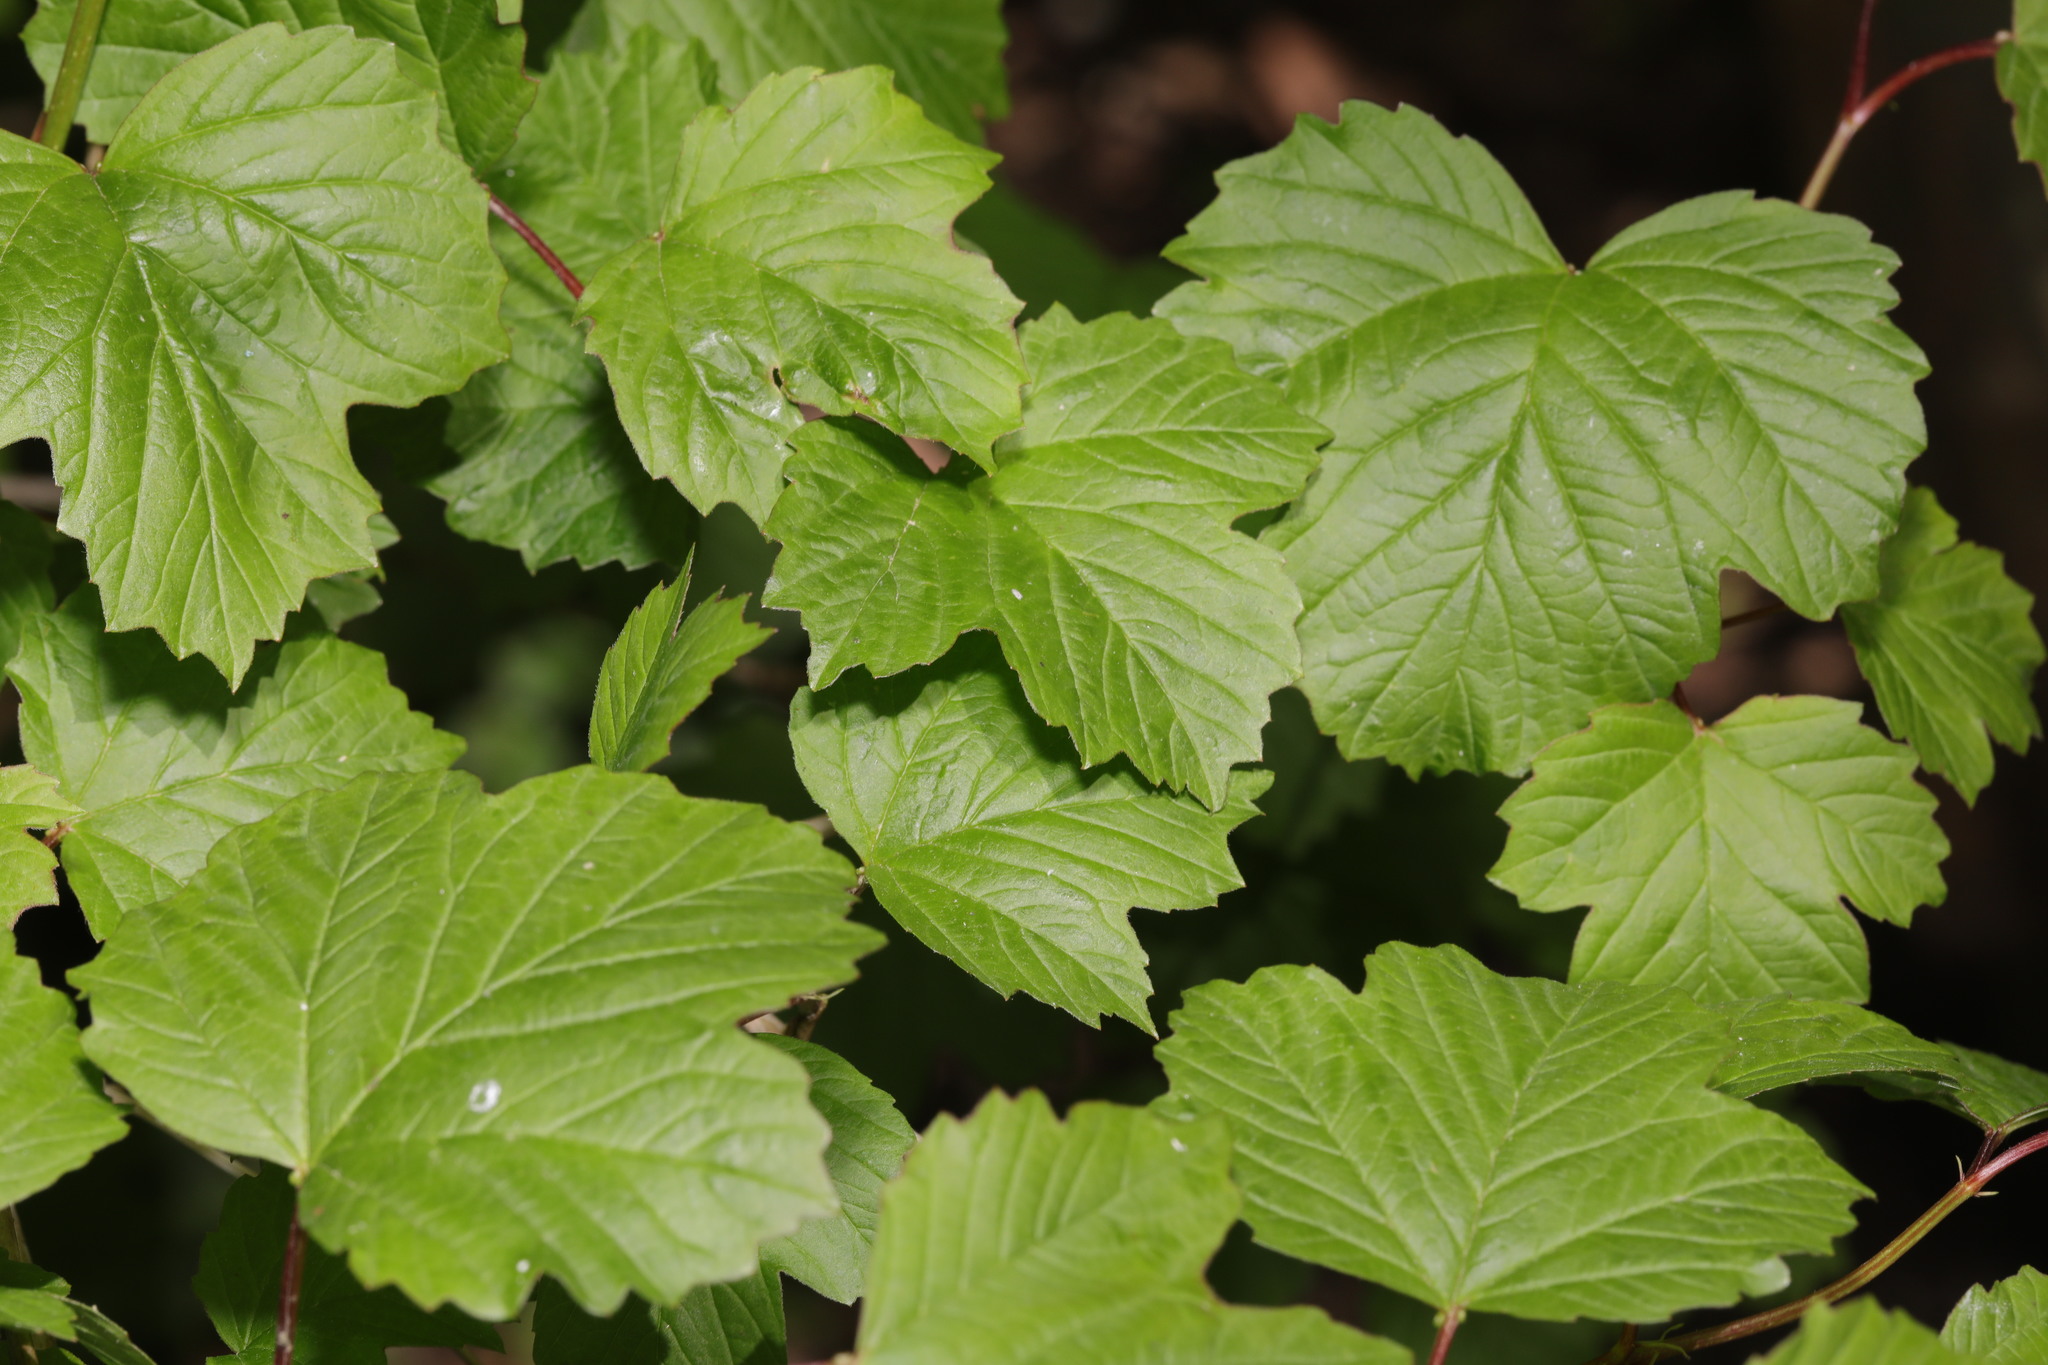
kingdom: Plantae
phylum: Tracheophyta
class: Magnoliopsida
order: Dipsacales
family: Viburnaceae
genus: Viburnum
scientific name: Viburnum opulus
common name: Guelder-rose
